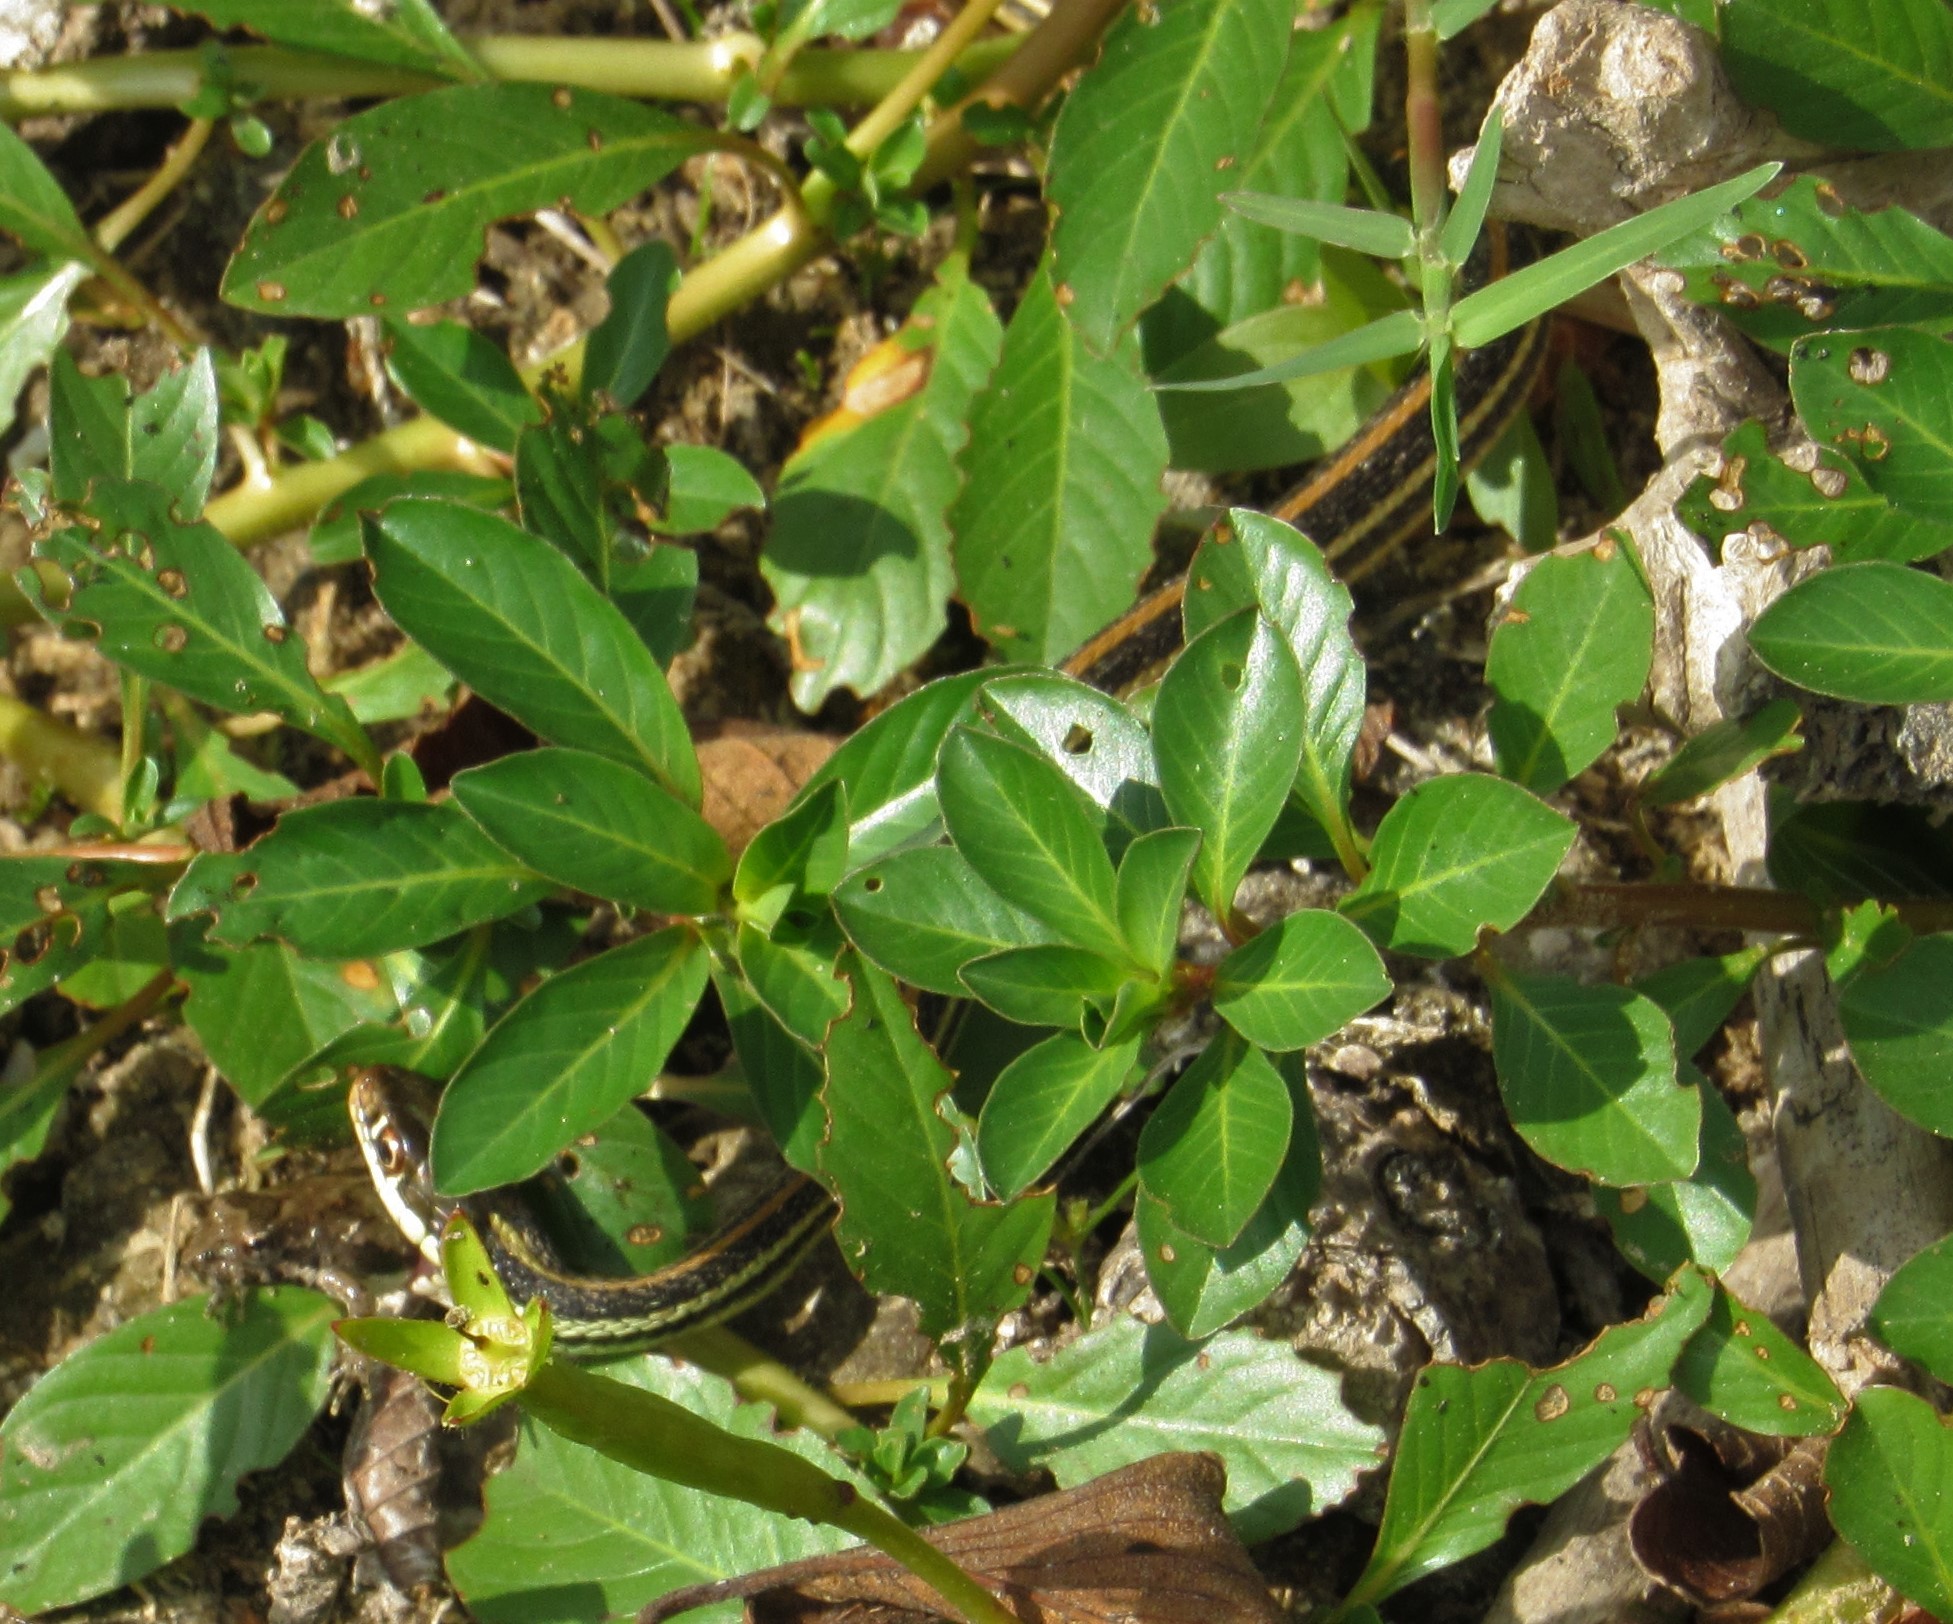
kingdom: Animalia
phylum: Chordata
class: Squamata
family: Colubridae
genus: Thamnophis
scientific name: Thamnophis proximus
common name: Western ribbon snake
